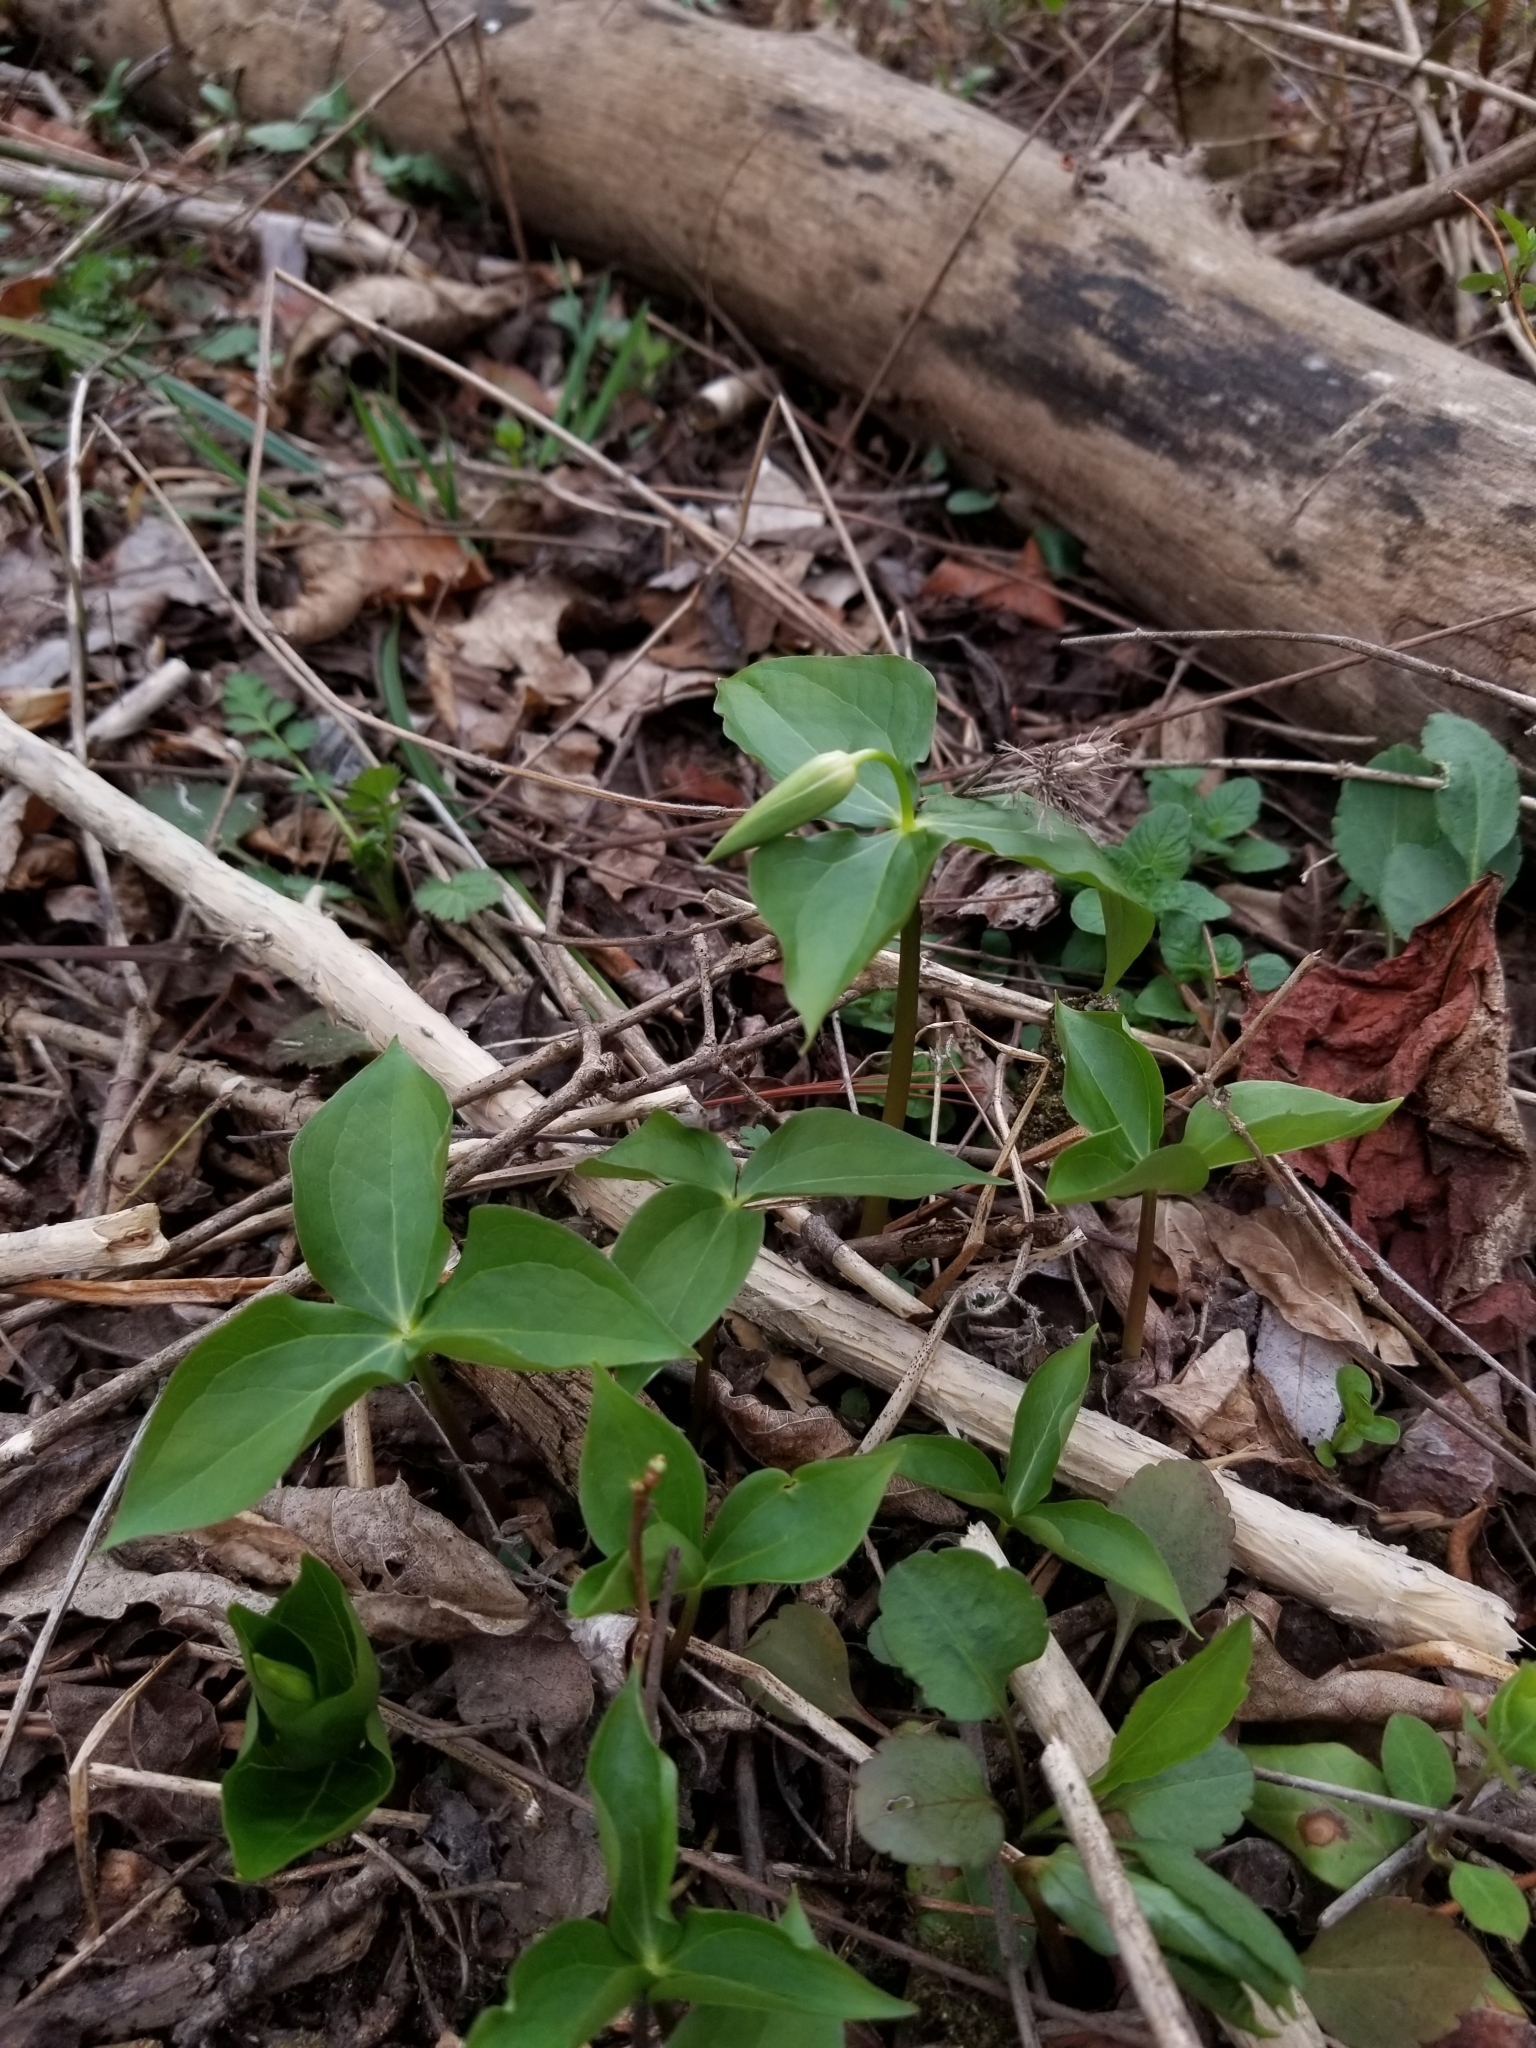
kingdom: Plantae
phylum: Tracheophyta
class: Liliopsida
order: Liliales
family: Melanthiaceae
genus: Trillium
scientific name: Trillium erectum
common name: Purple trillium
